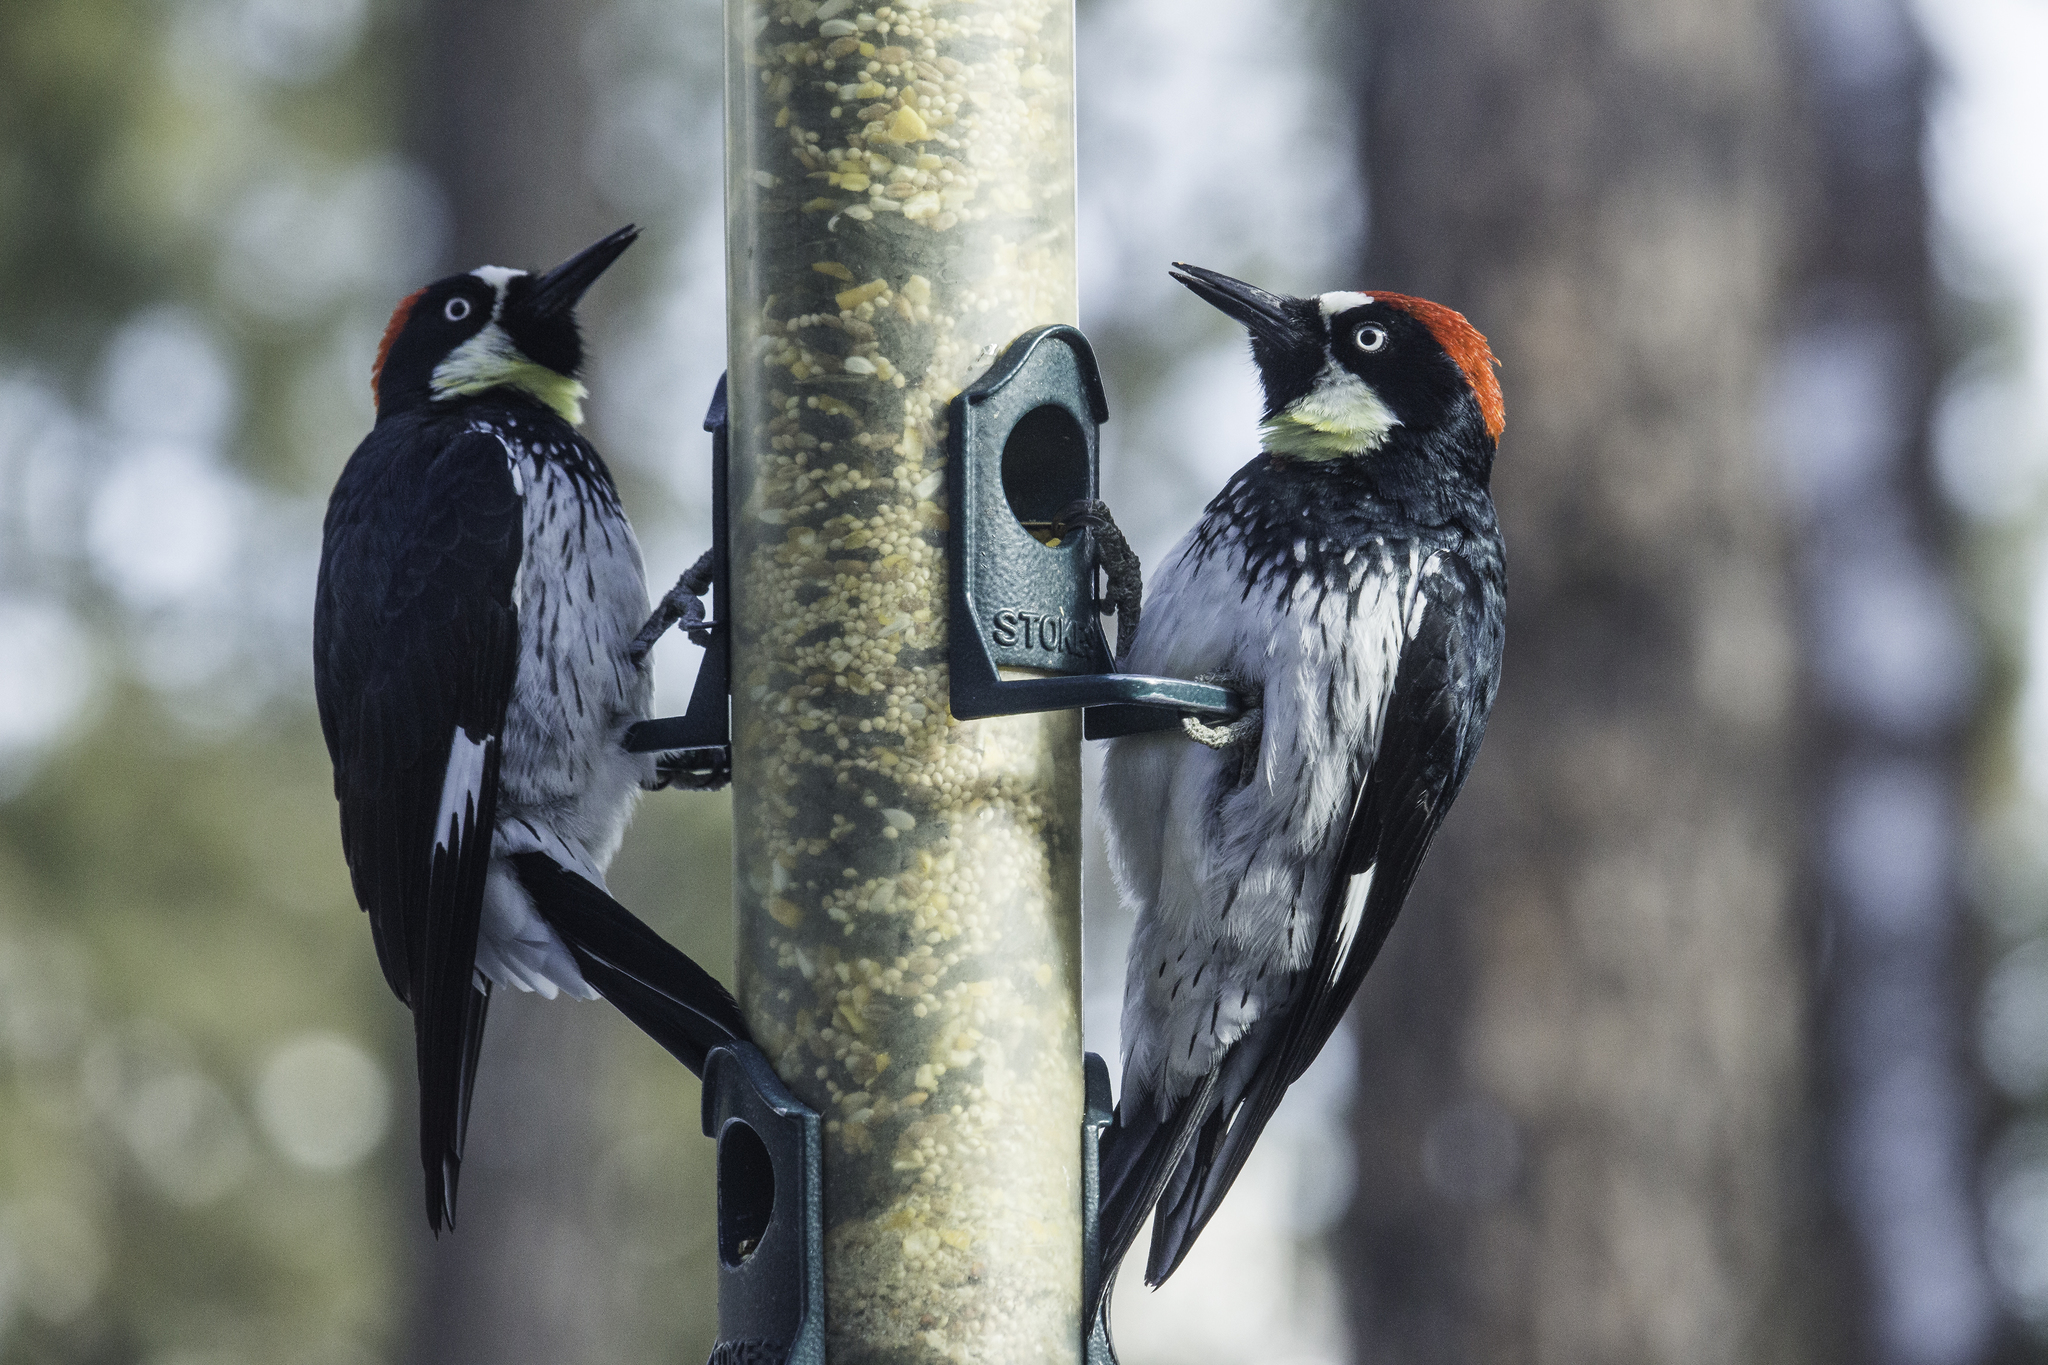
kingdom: Animalia
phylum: Chordata
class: Aves
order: Piciformes
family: Picidae
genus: Melanerpes
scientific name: Melanerpes formicivorus
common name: Acorn woodpecker
